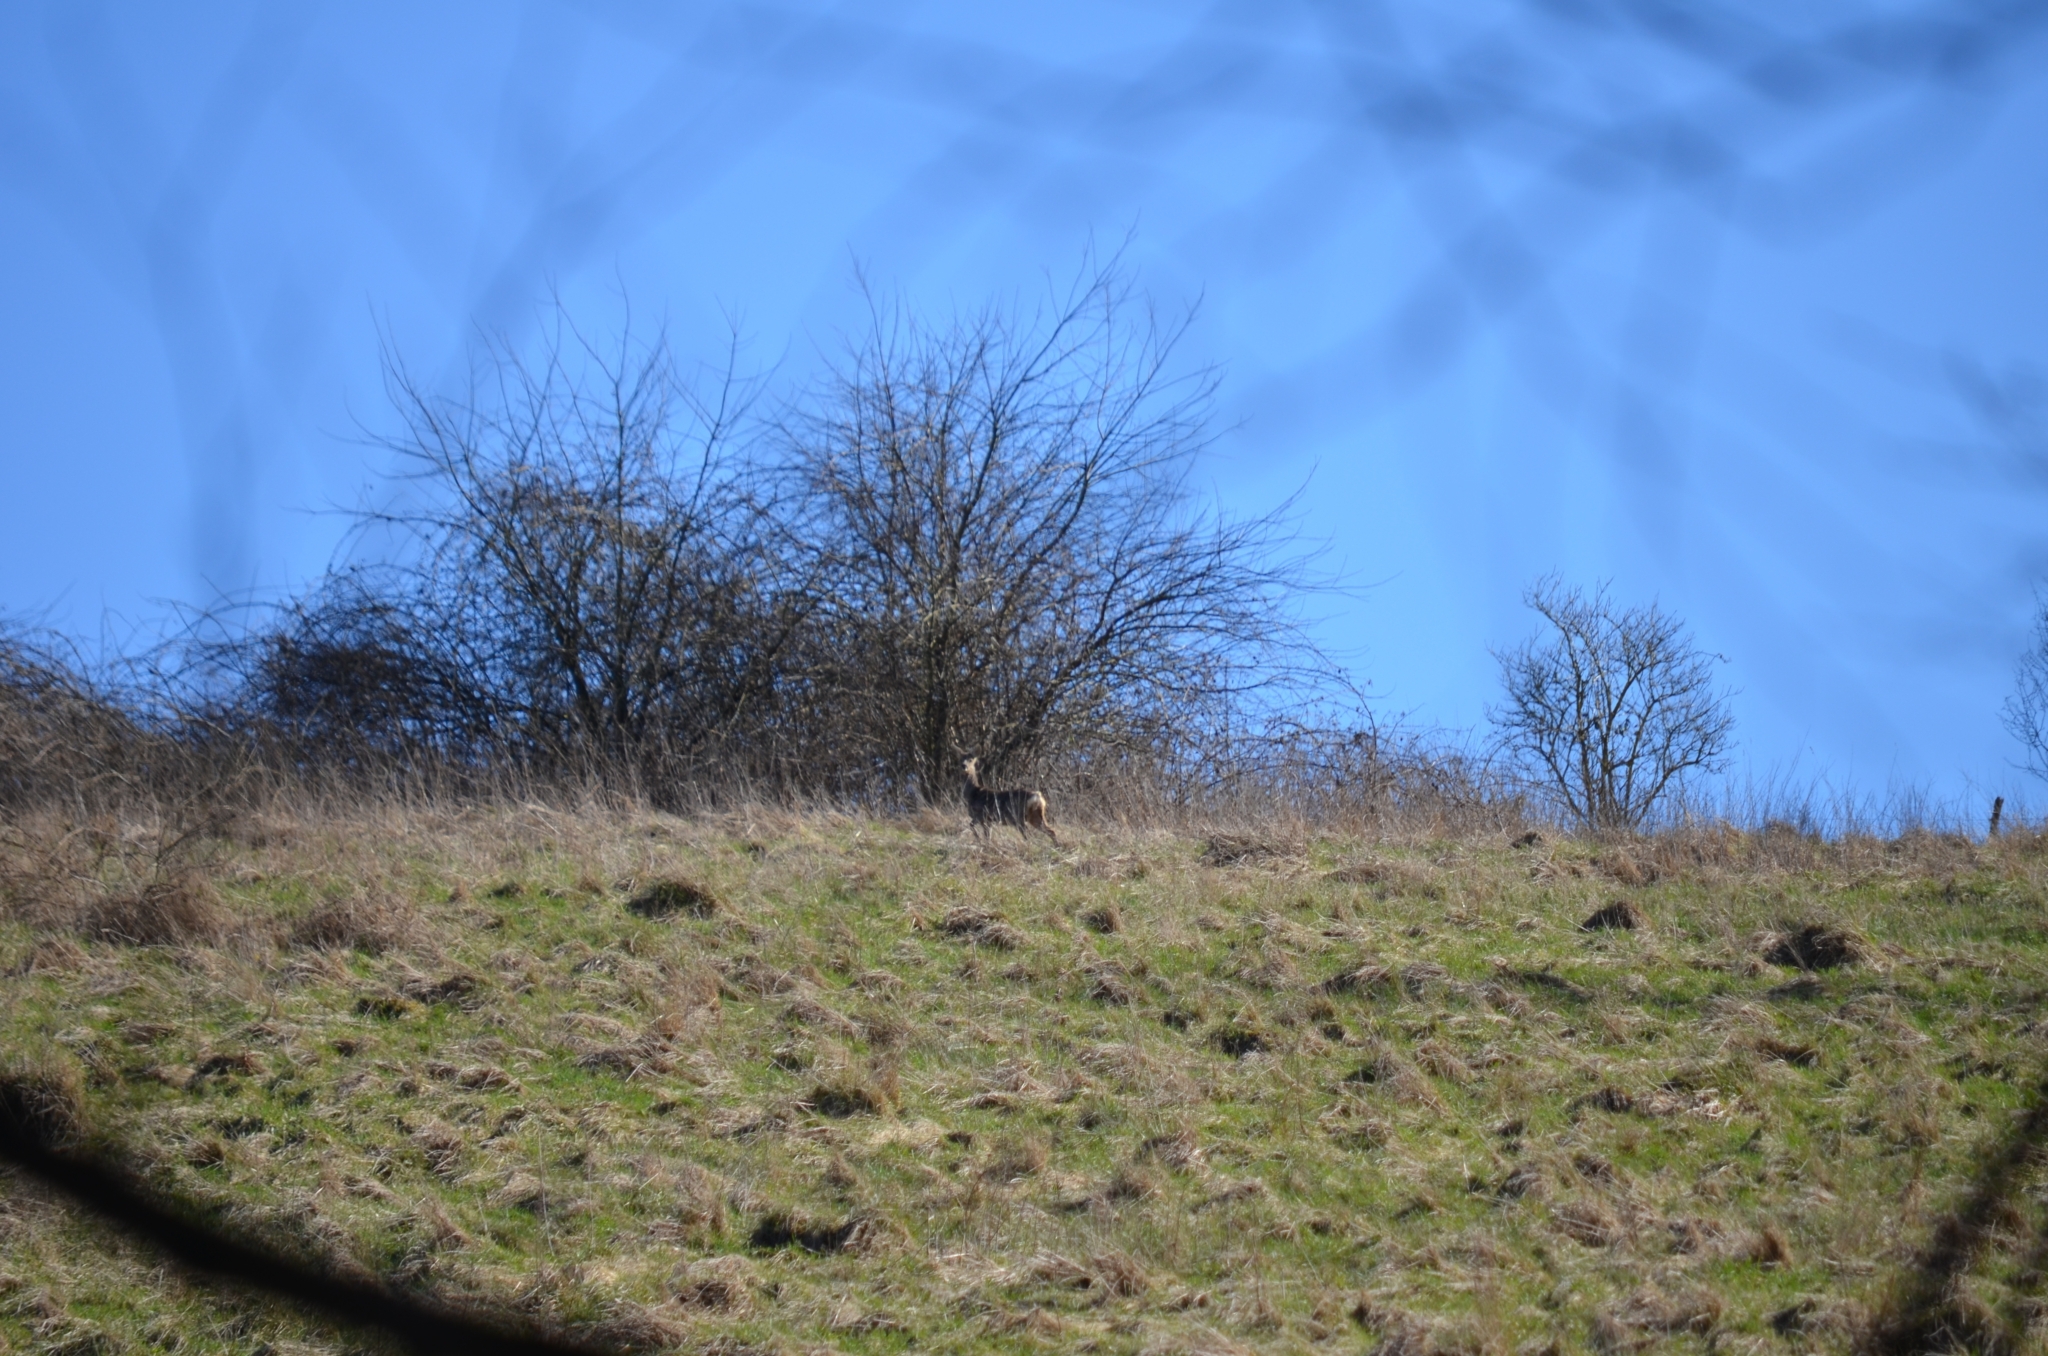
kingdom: Animalia
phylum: Chordata
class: Mammalia
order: Artiodactyla
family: Cervidae
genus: Capreolus
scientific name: Capreolus capreolus
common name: Western roe deer
